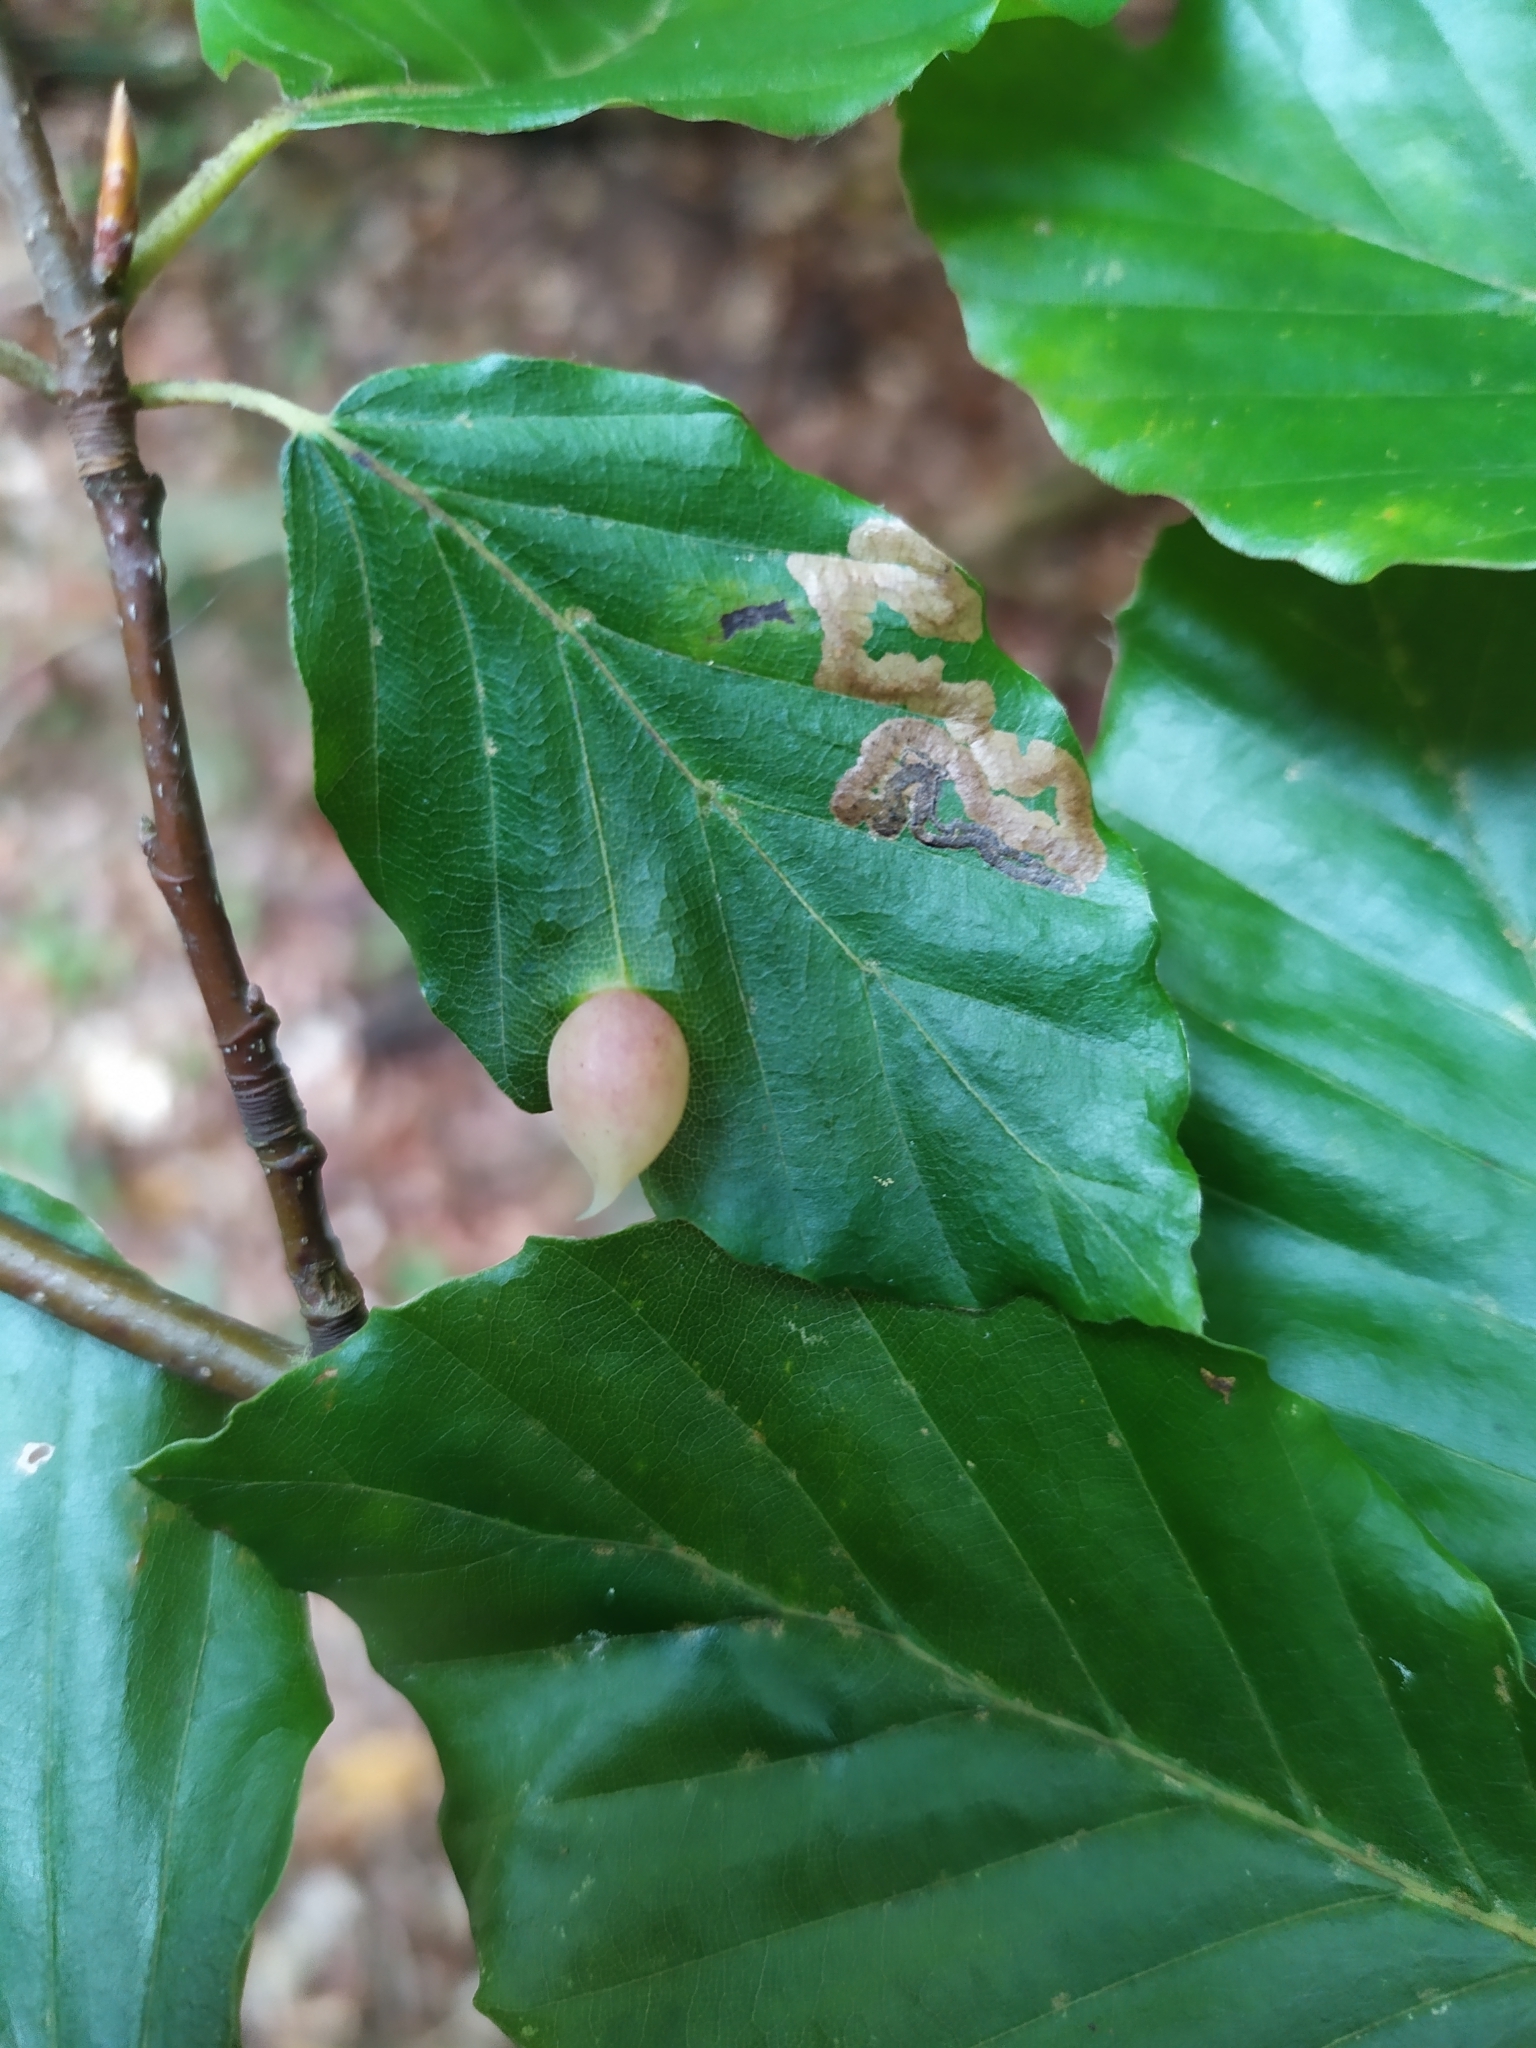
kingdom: Animalia
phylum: Arthropoda
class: Insecta
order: Diptera
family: Cecidomyiidae
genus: Mikiola
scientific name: Mikiola fagi
